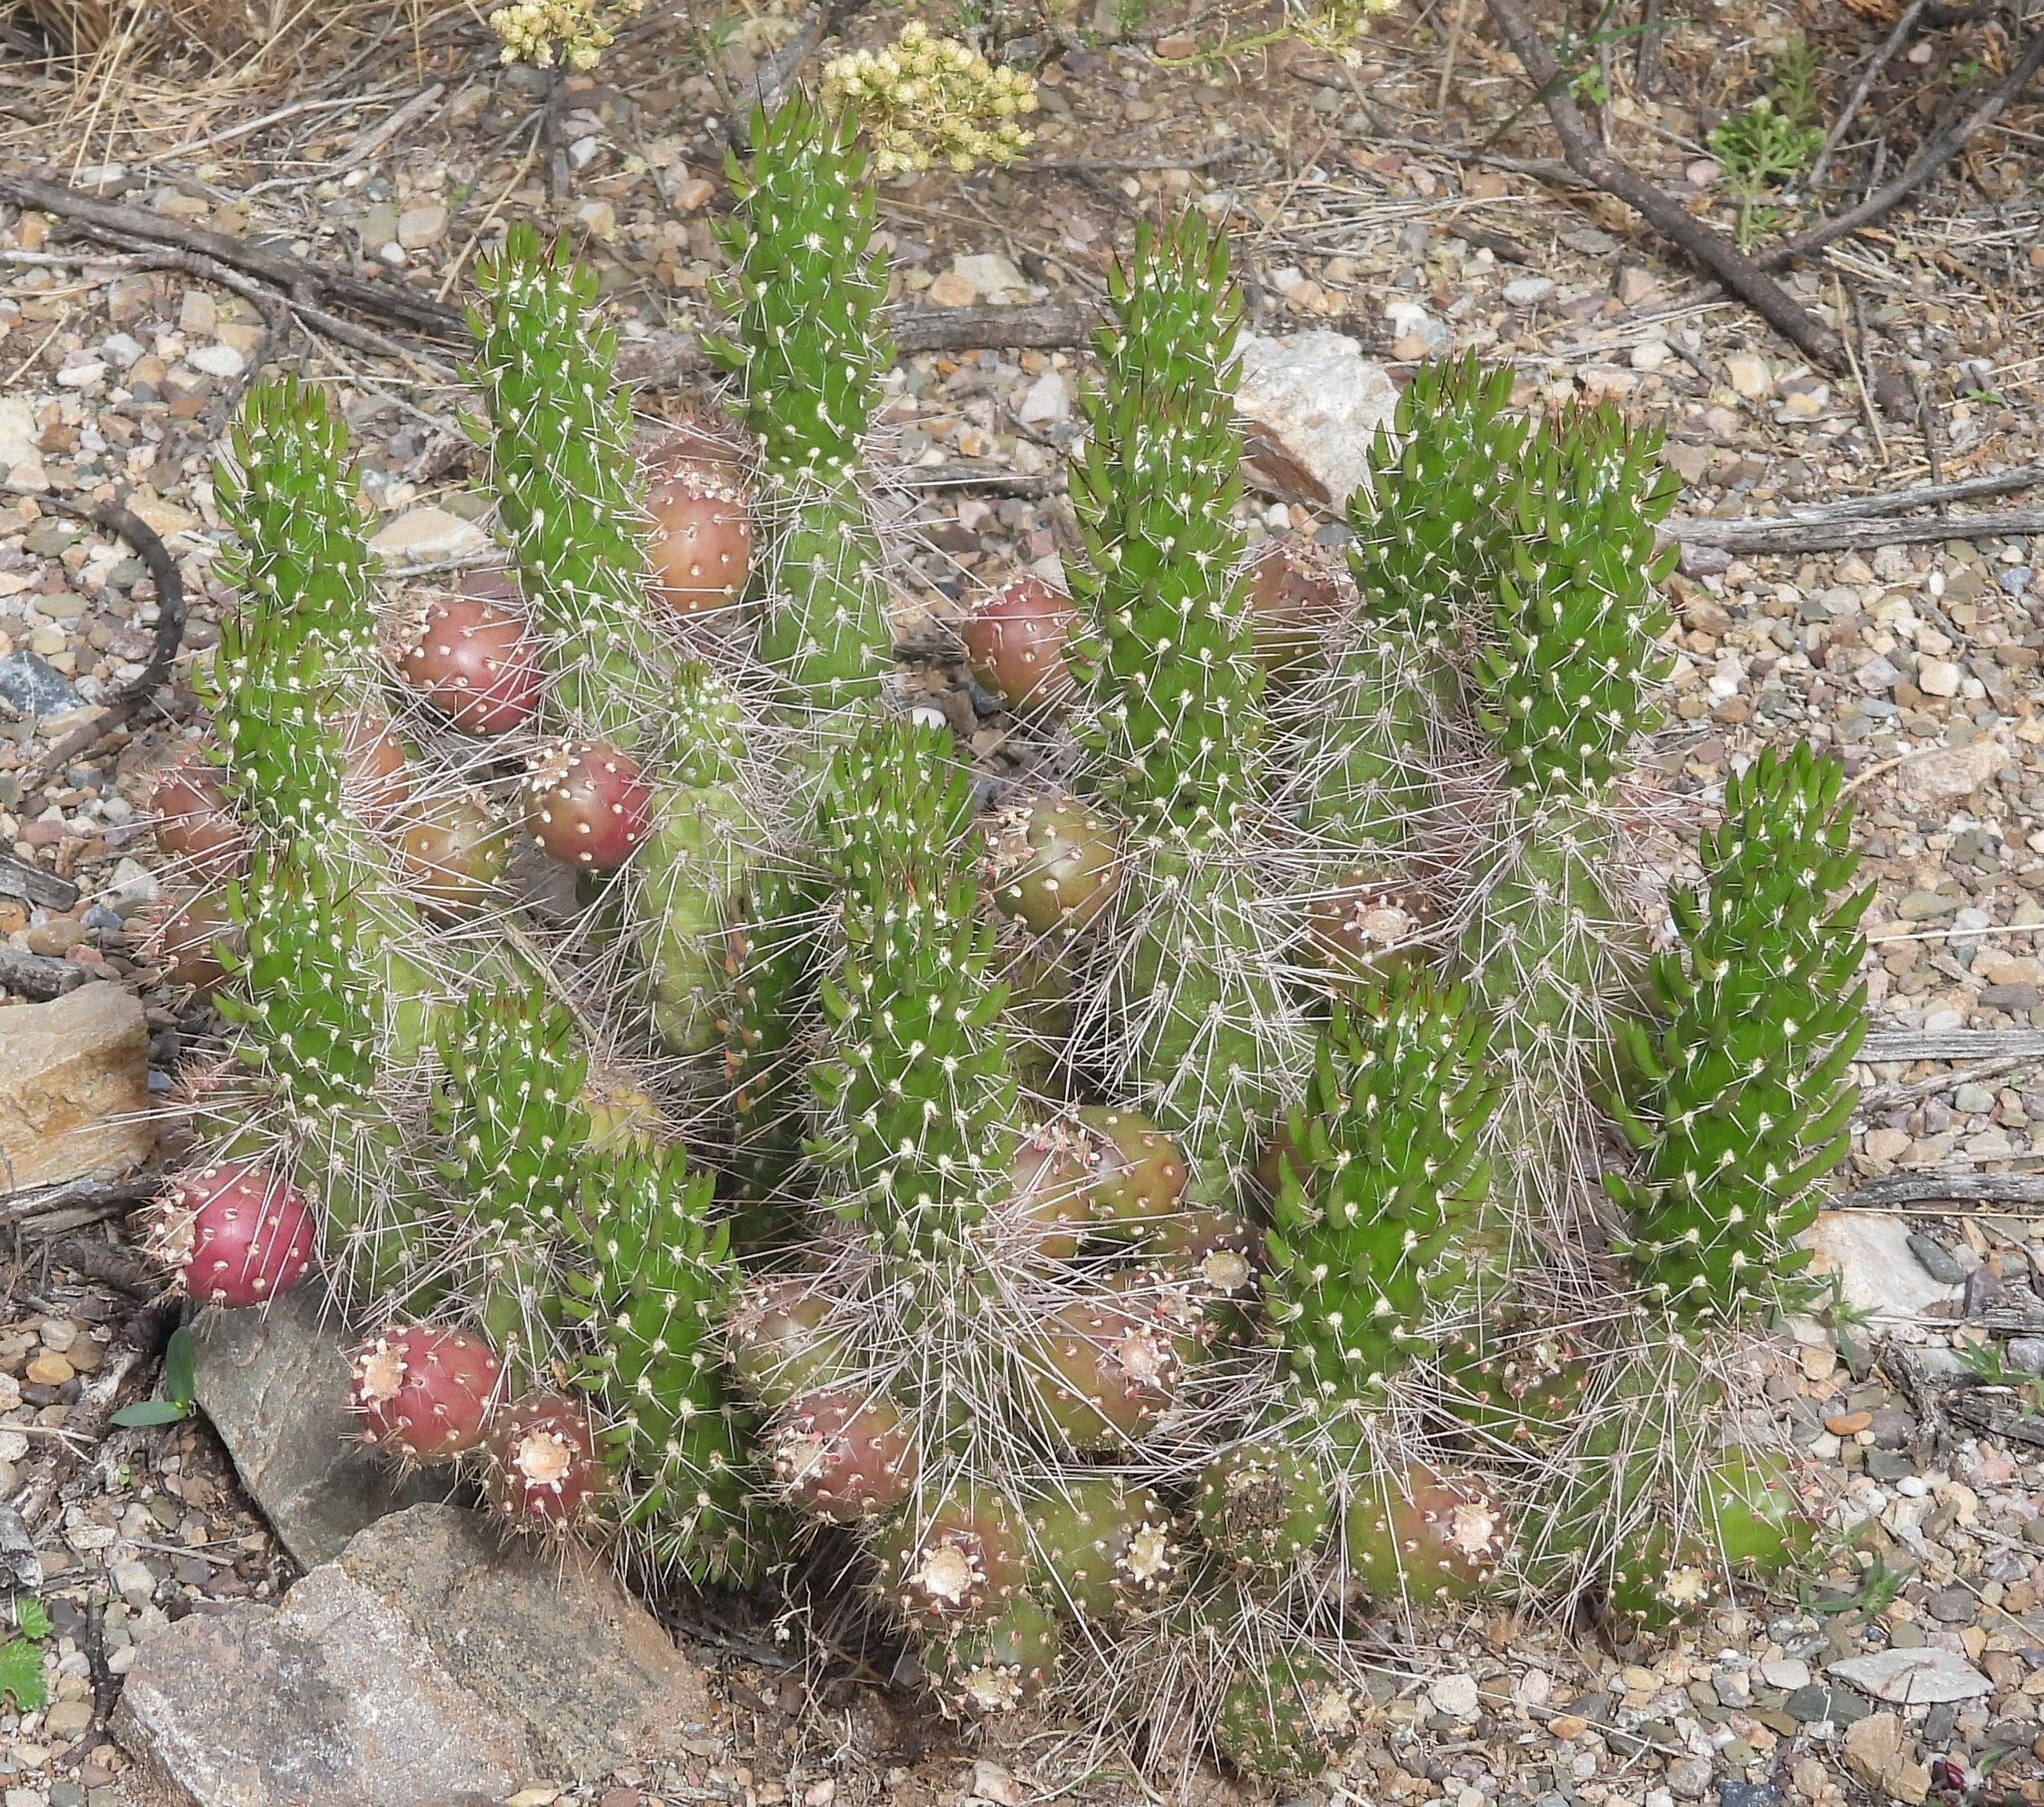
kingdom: Plantae
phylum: Tracheophyta
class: Magnoliopsida
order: Caryophyllales
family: Cactaceae
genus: Austrocylindropuntia
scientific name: Austrocylindropuntia shaferi
